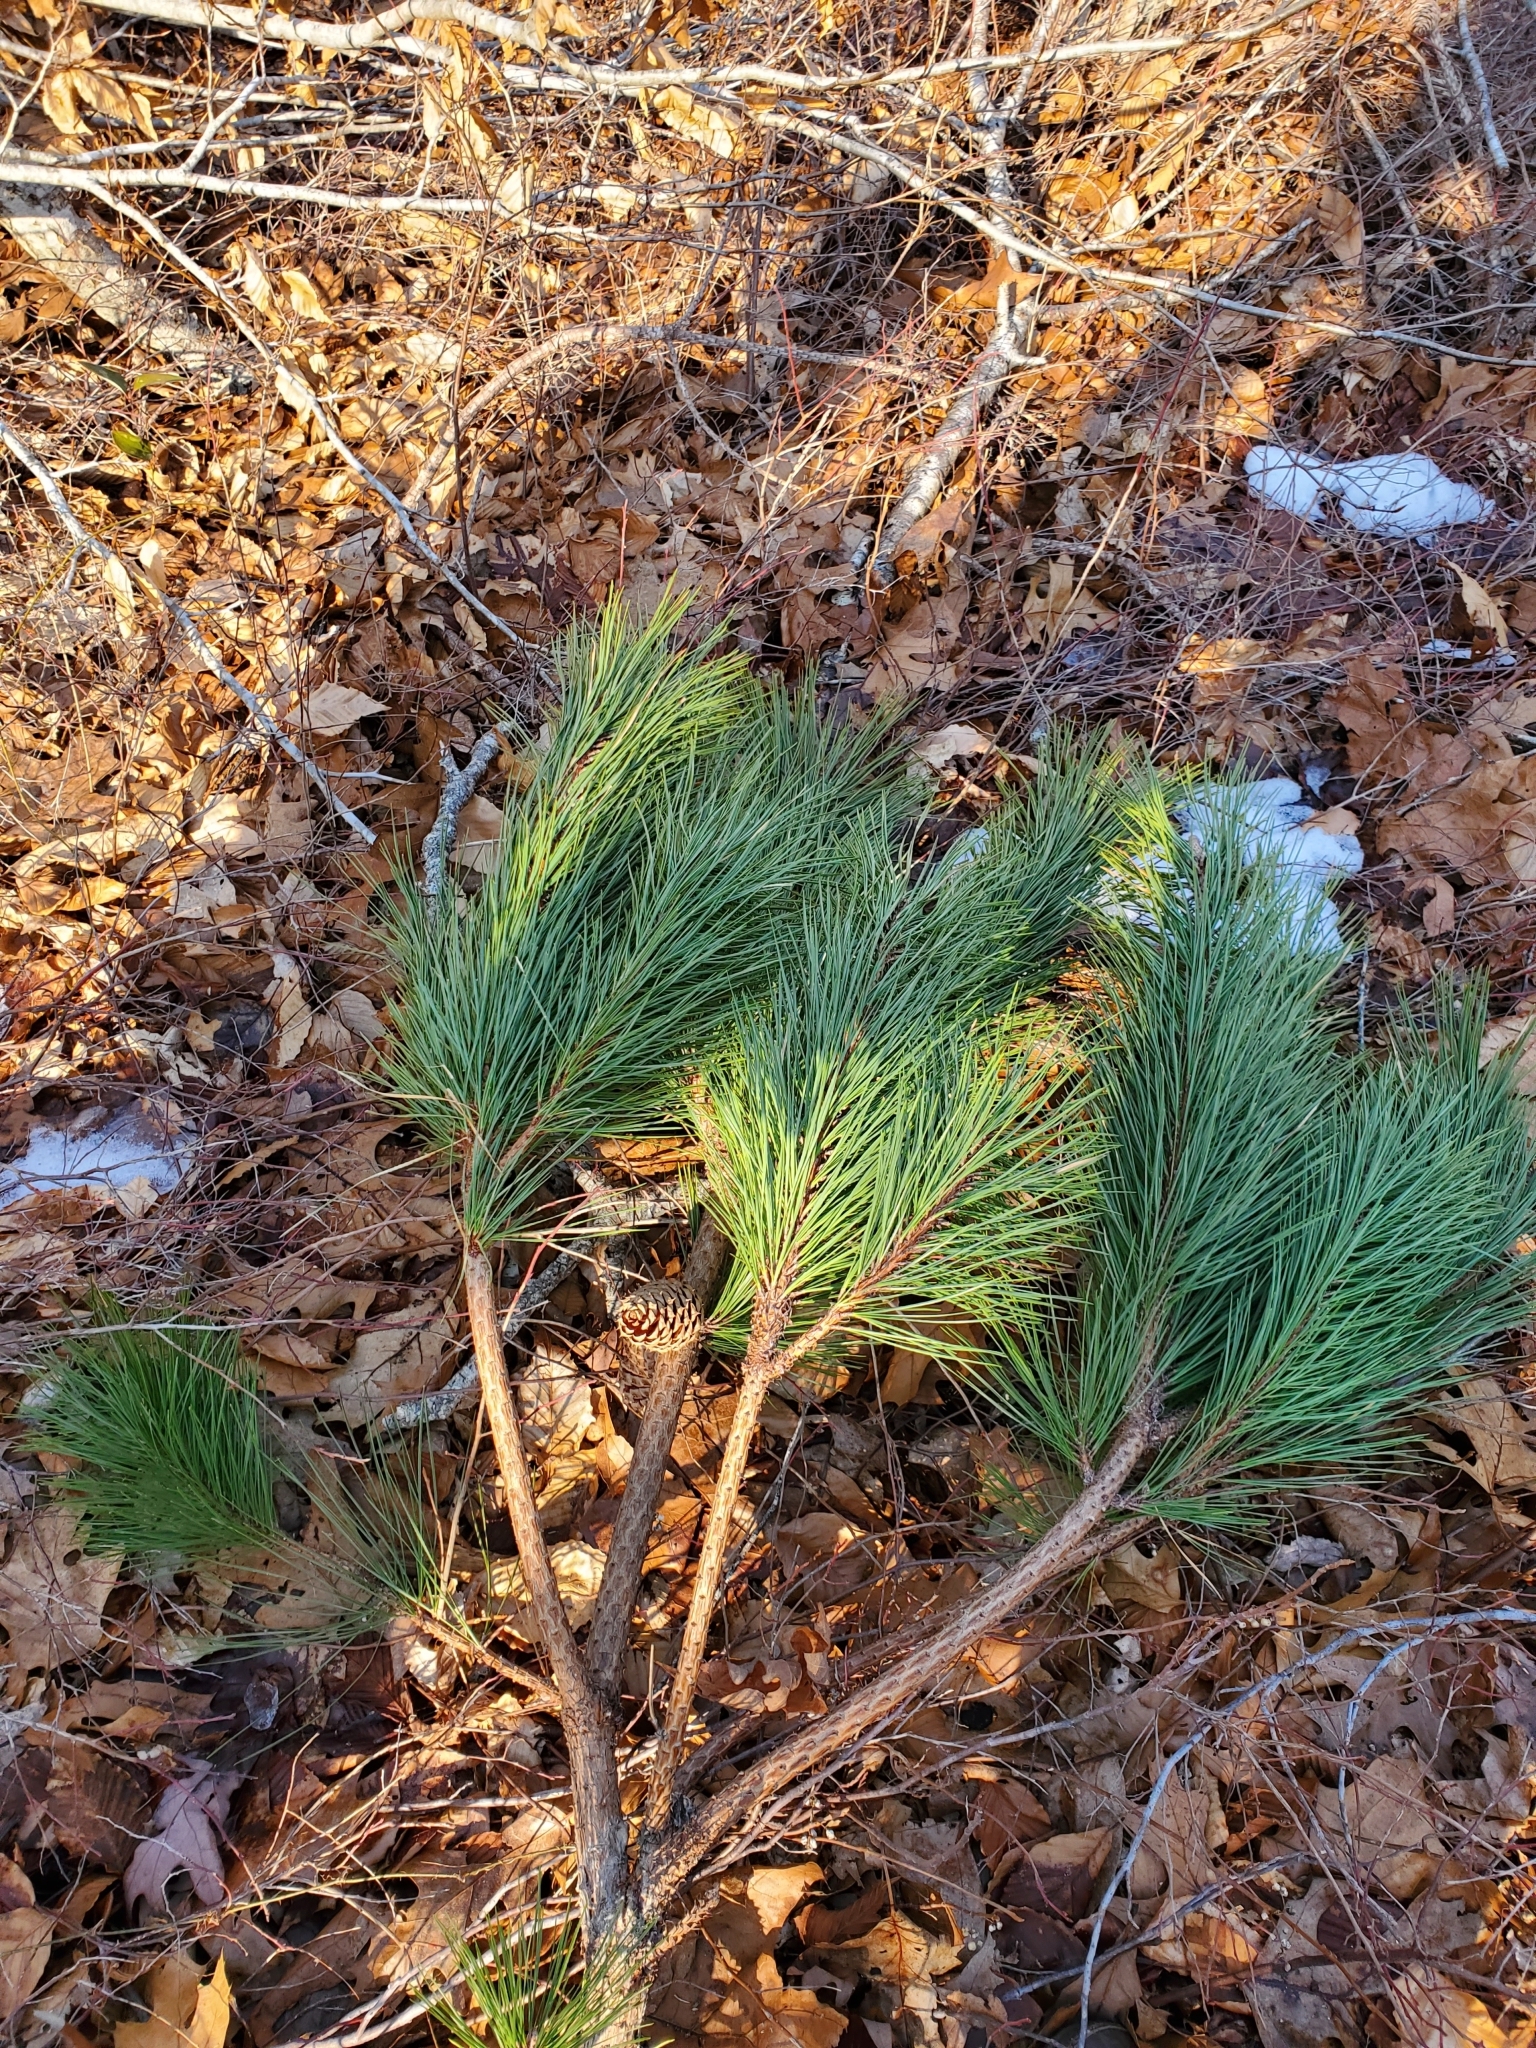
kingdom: Plantae
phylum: Tracheophyta
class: Pinopsida
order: Pinales
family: Pinaceae
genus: Pinus
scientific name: Pinus rigida
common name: Pitch pine
